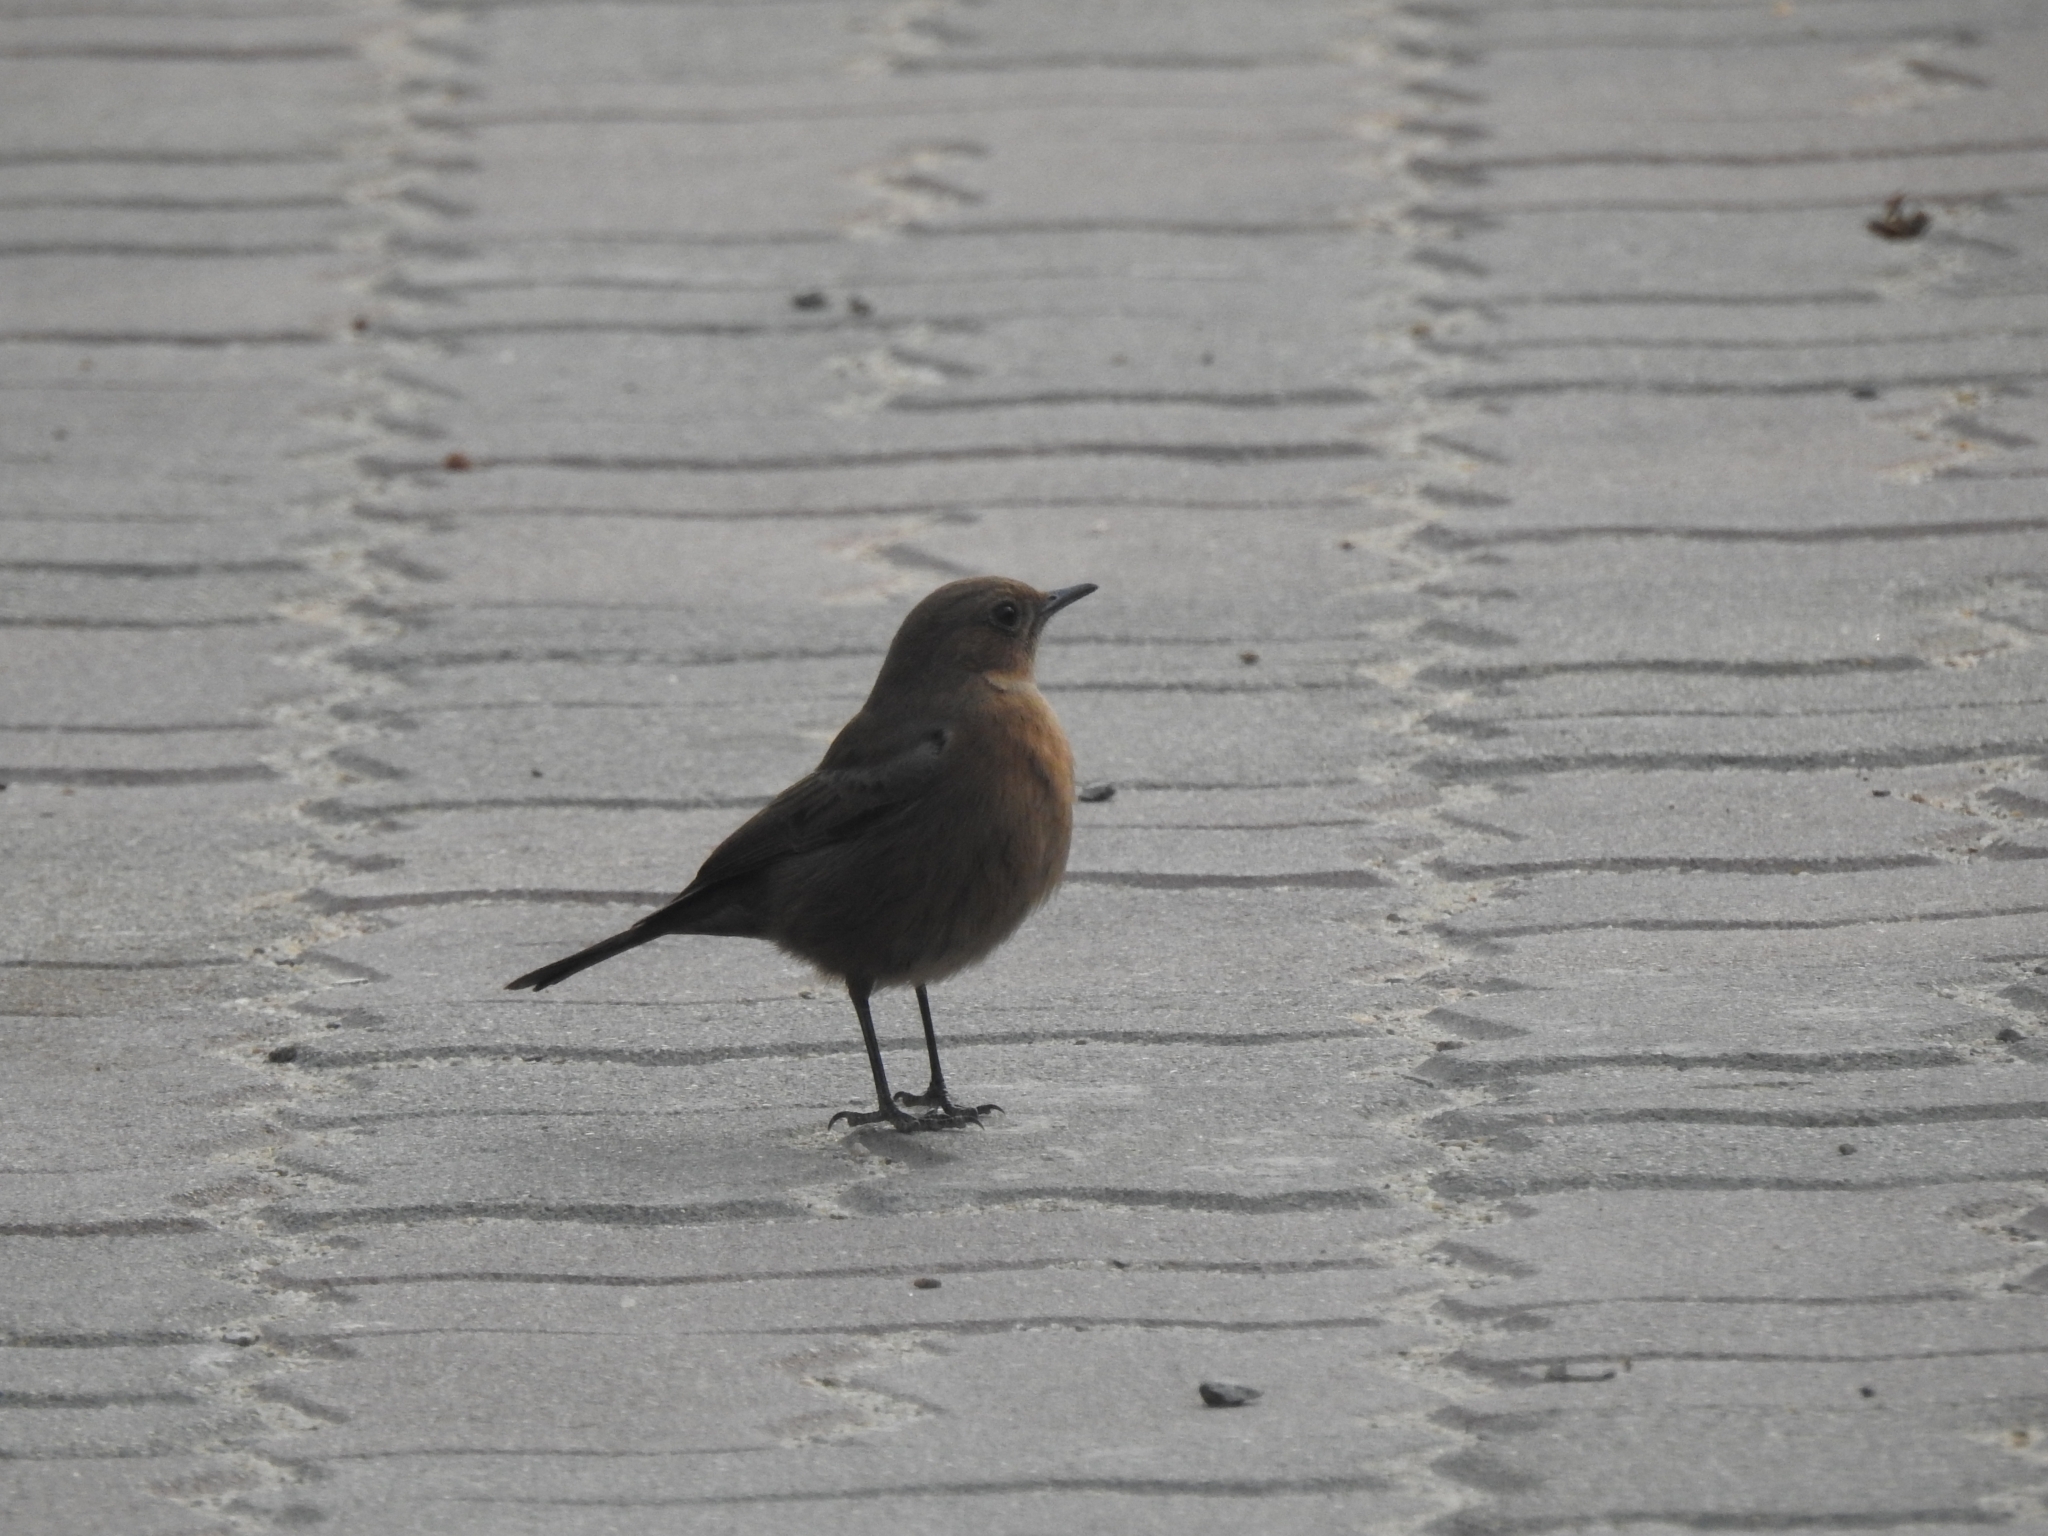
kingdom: Animalia
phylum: Chordata
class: Aves
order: Passeriformes
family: Muscicapidae
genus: Oenanthe
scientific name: Oenanthe fusca
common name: Brown rock chat
